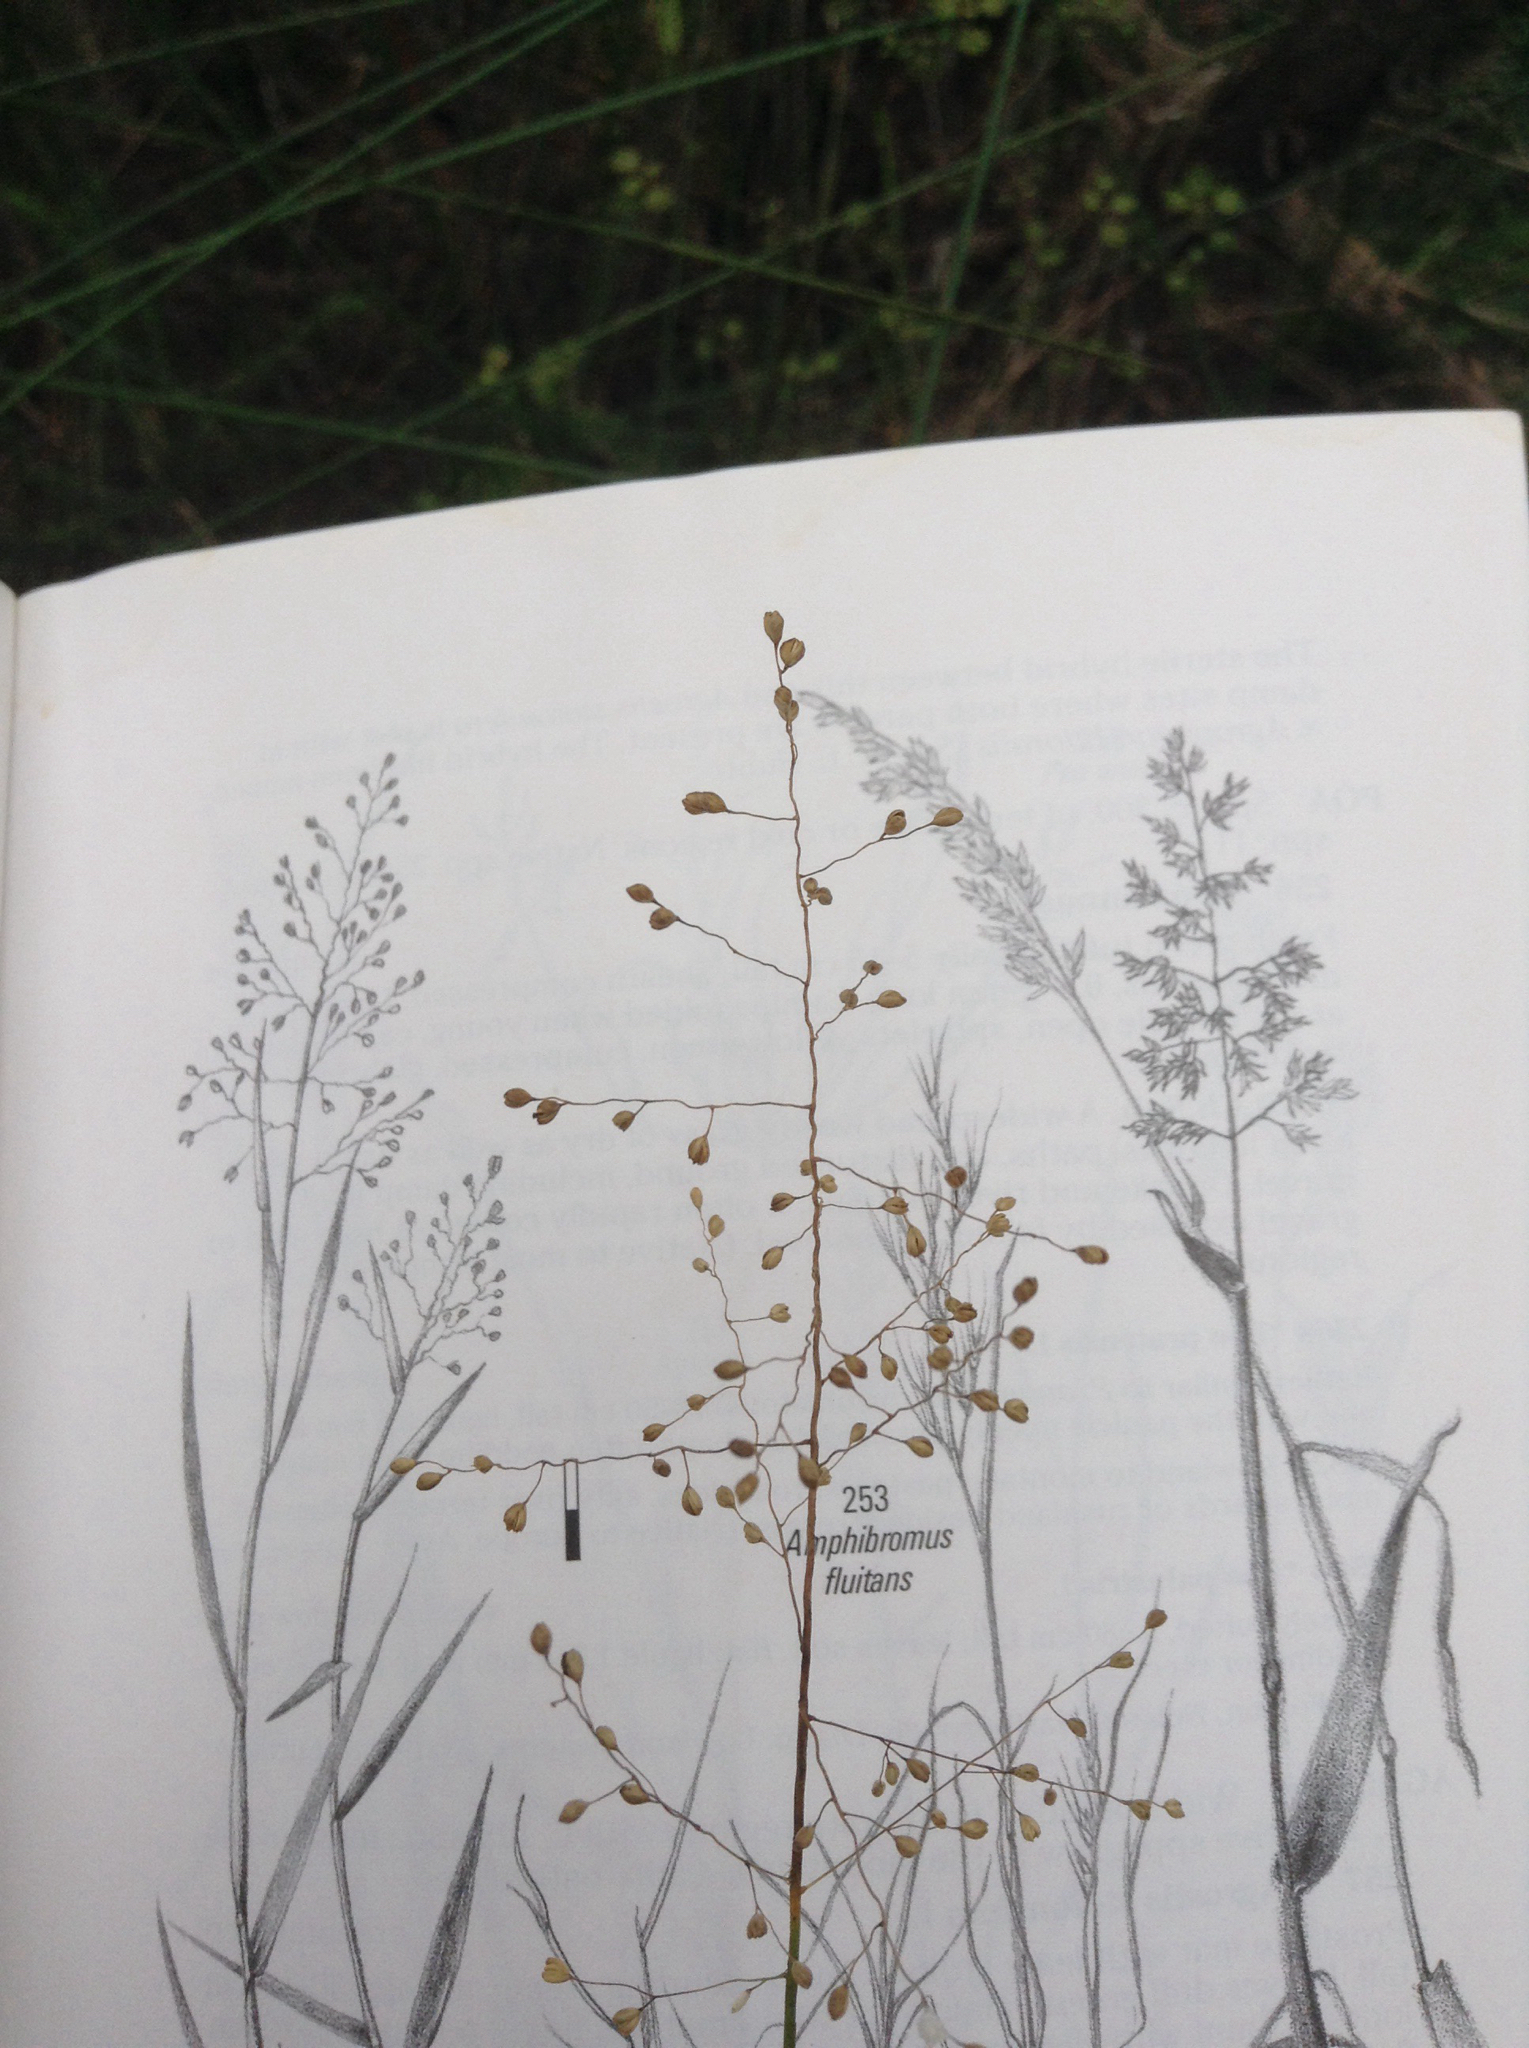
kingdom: Plantae
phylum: Tracheophyta
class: Liliopsida
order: Poales
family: Poaceae
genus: Isachne
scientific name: Isachne globosa
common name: Swamp millet
